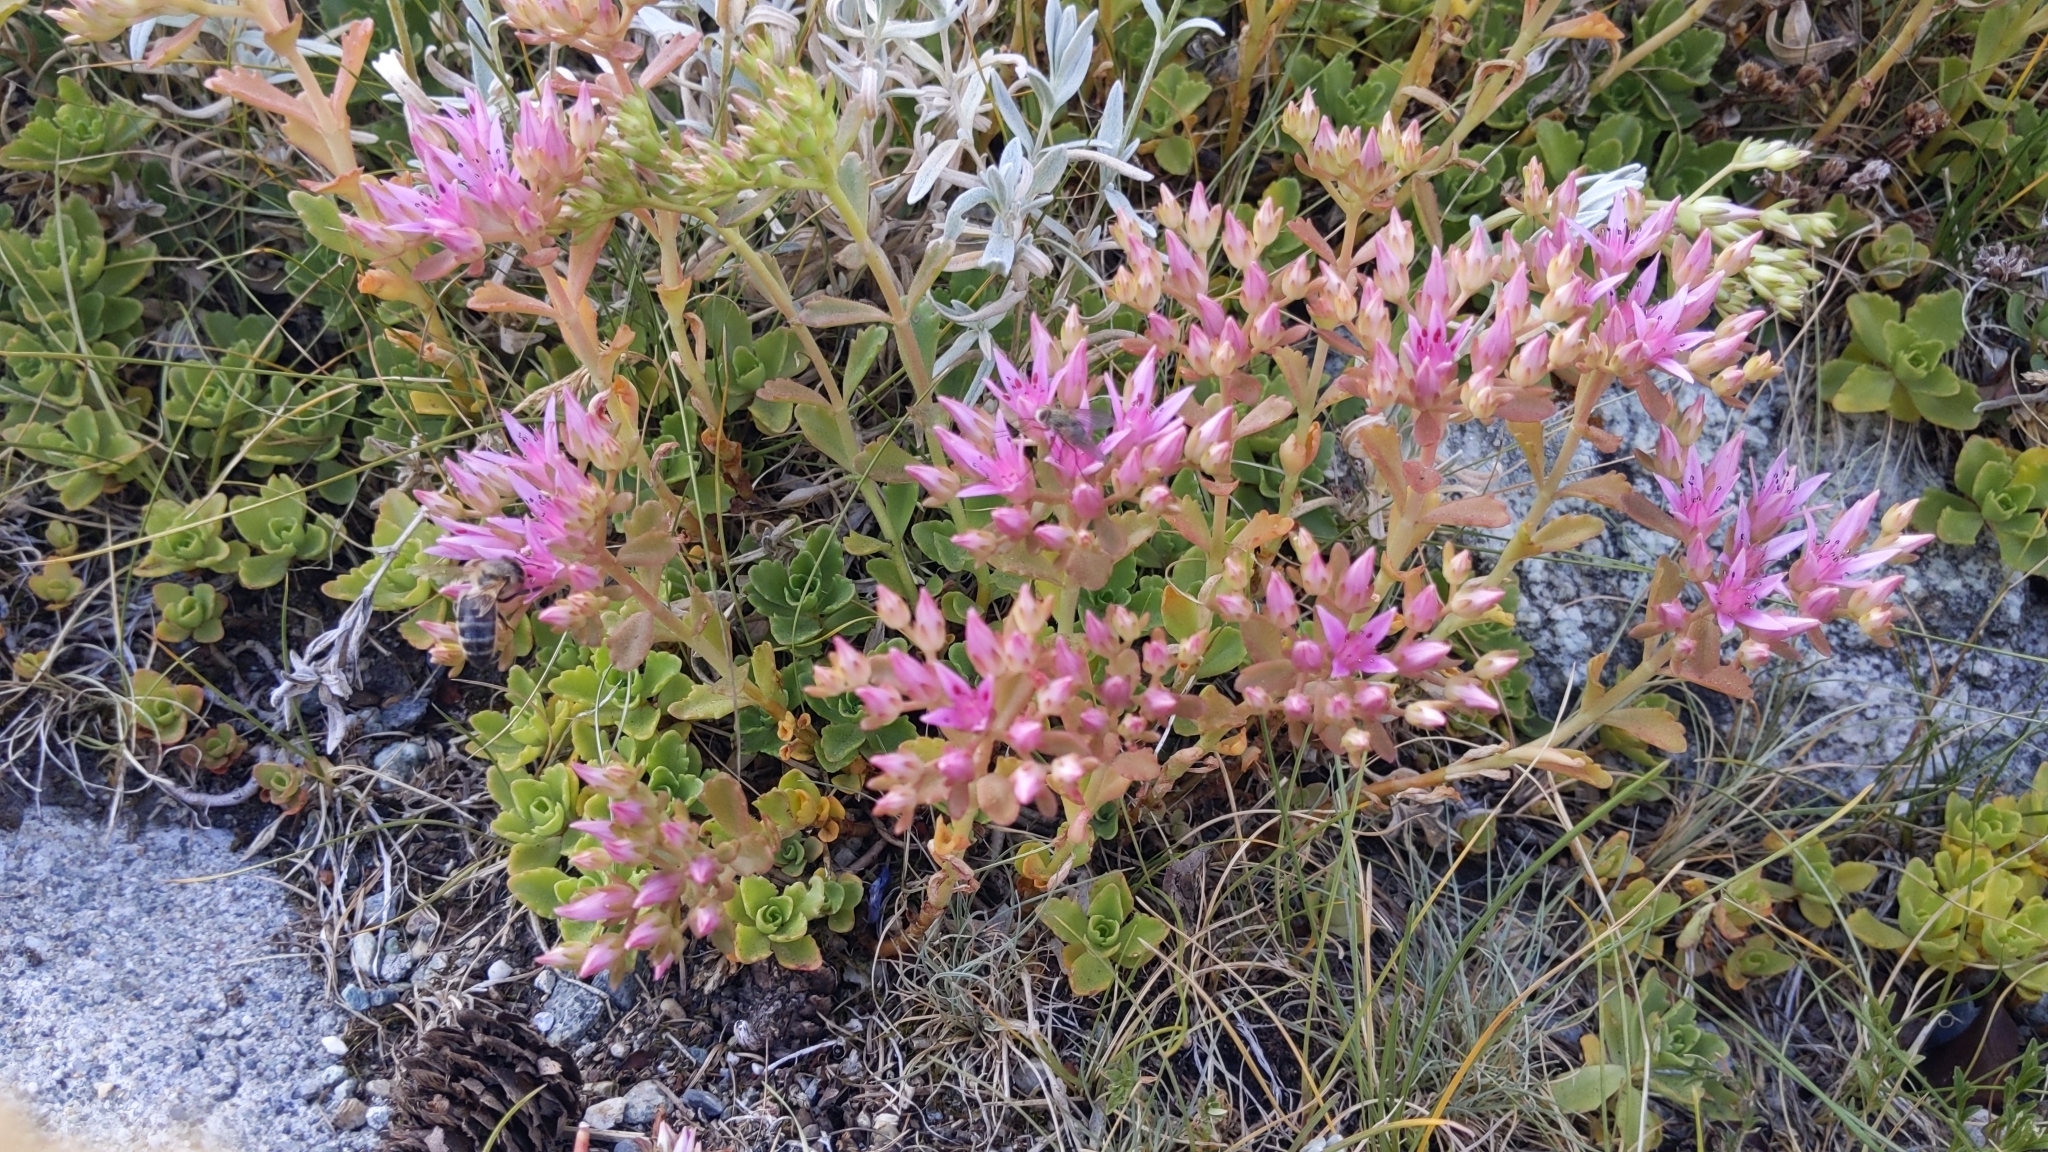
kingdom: Plantae
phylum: Tracheophyta
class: Magnoliopsida
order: Saxifragales
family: Crassulaceae
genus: Phedimus
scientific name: Phedimus spurius
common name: Caucasian stonecrop
